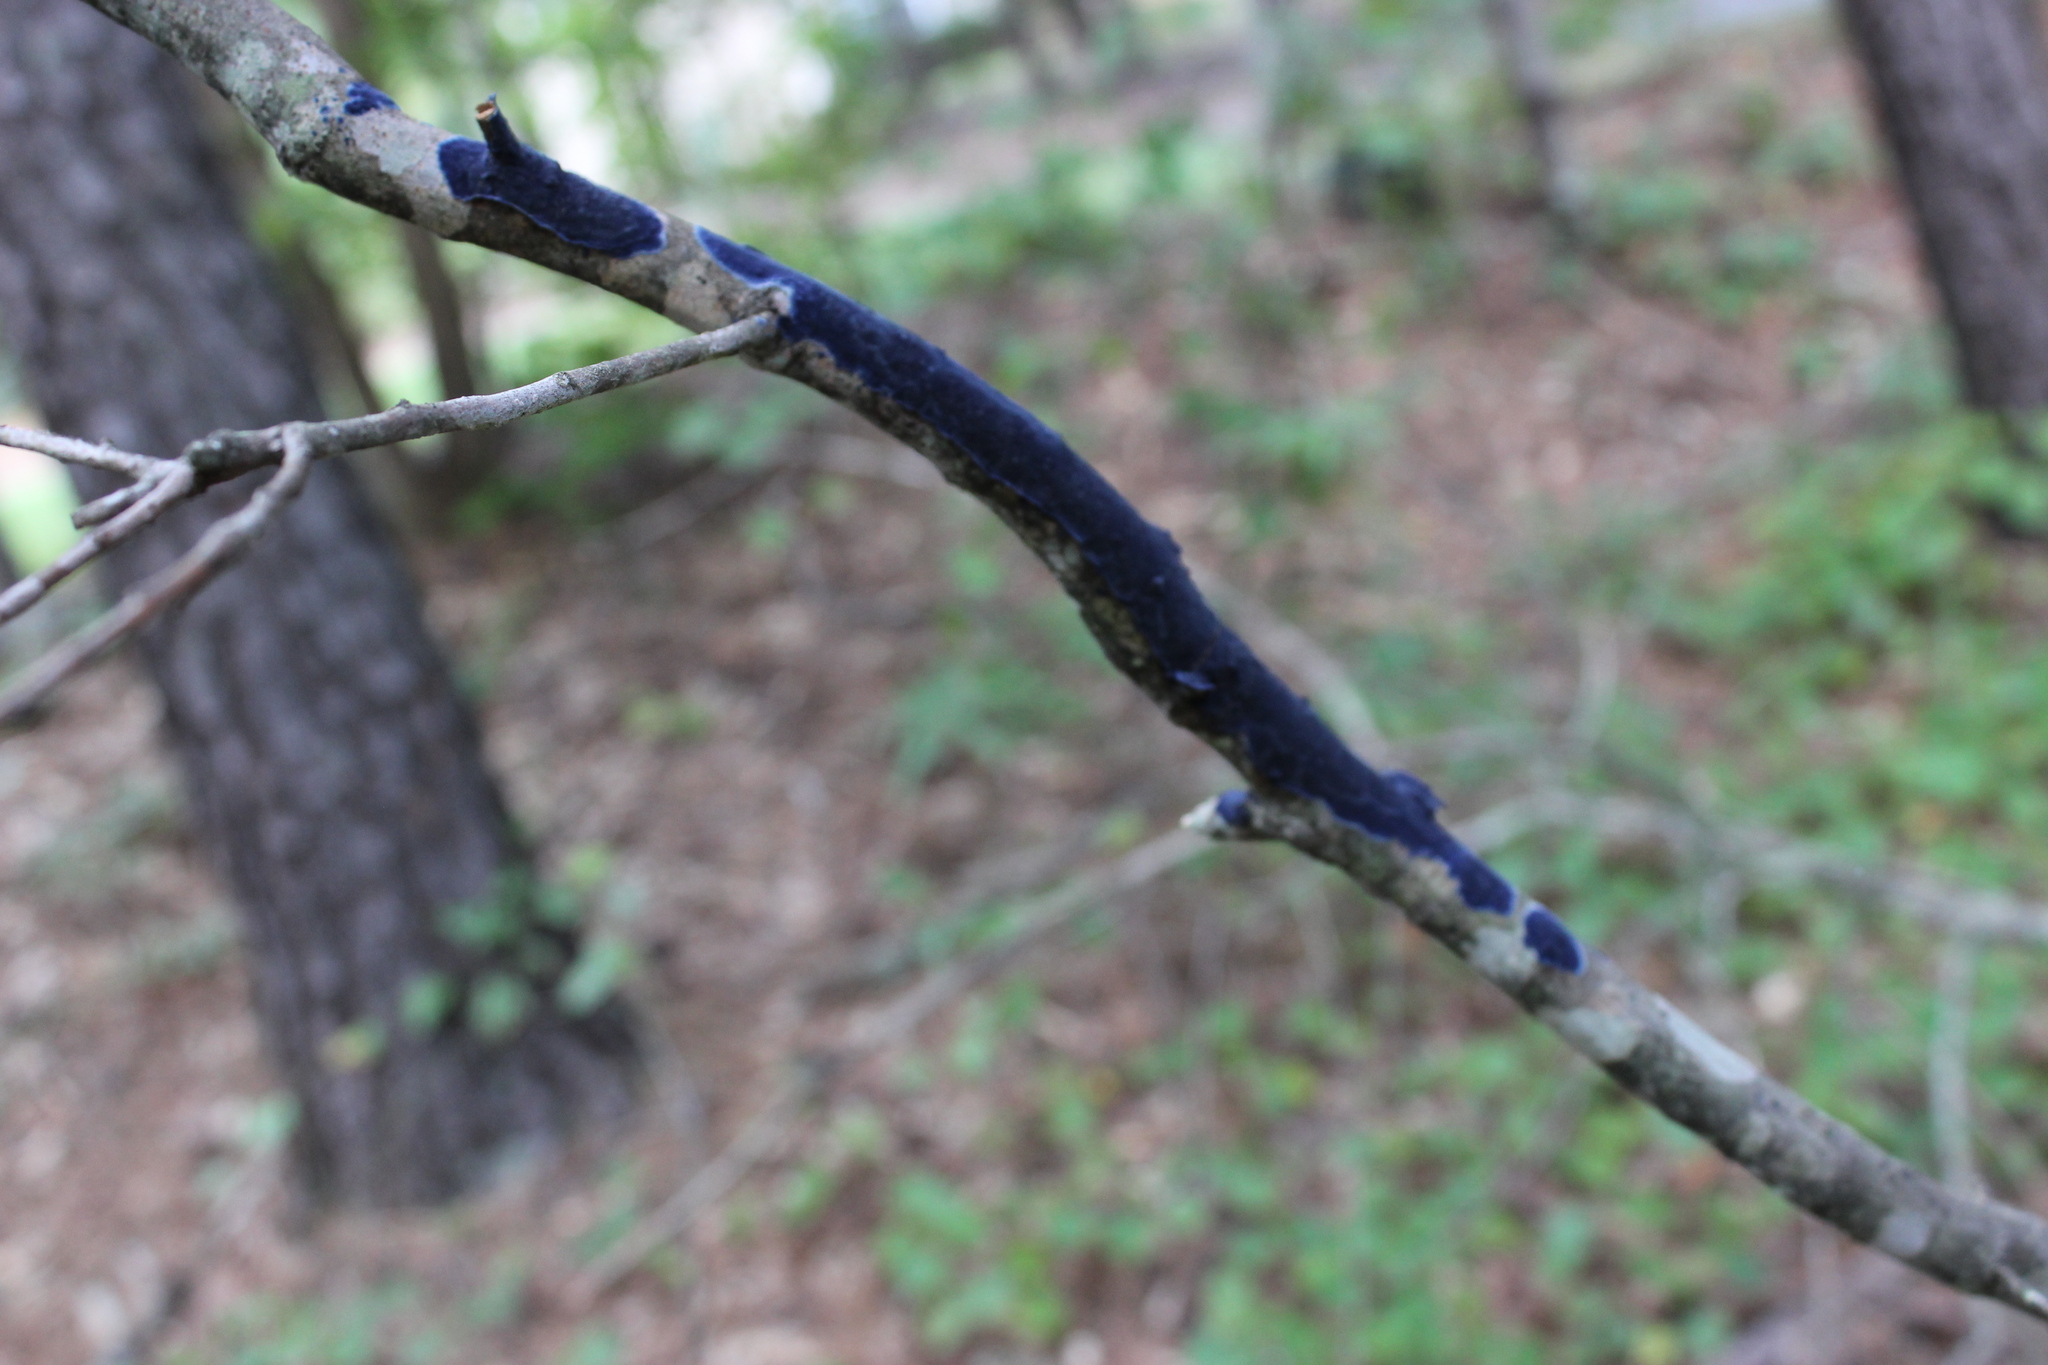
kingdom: Fungi
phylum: Basidiomycota
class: Agaricomycetes
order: Polyporales
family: Phanerochaetaceae
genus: Terana
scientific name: Terana coerulea
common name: Cobalt crust
